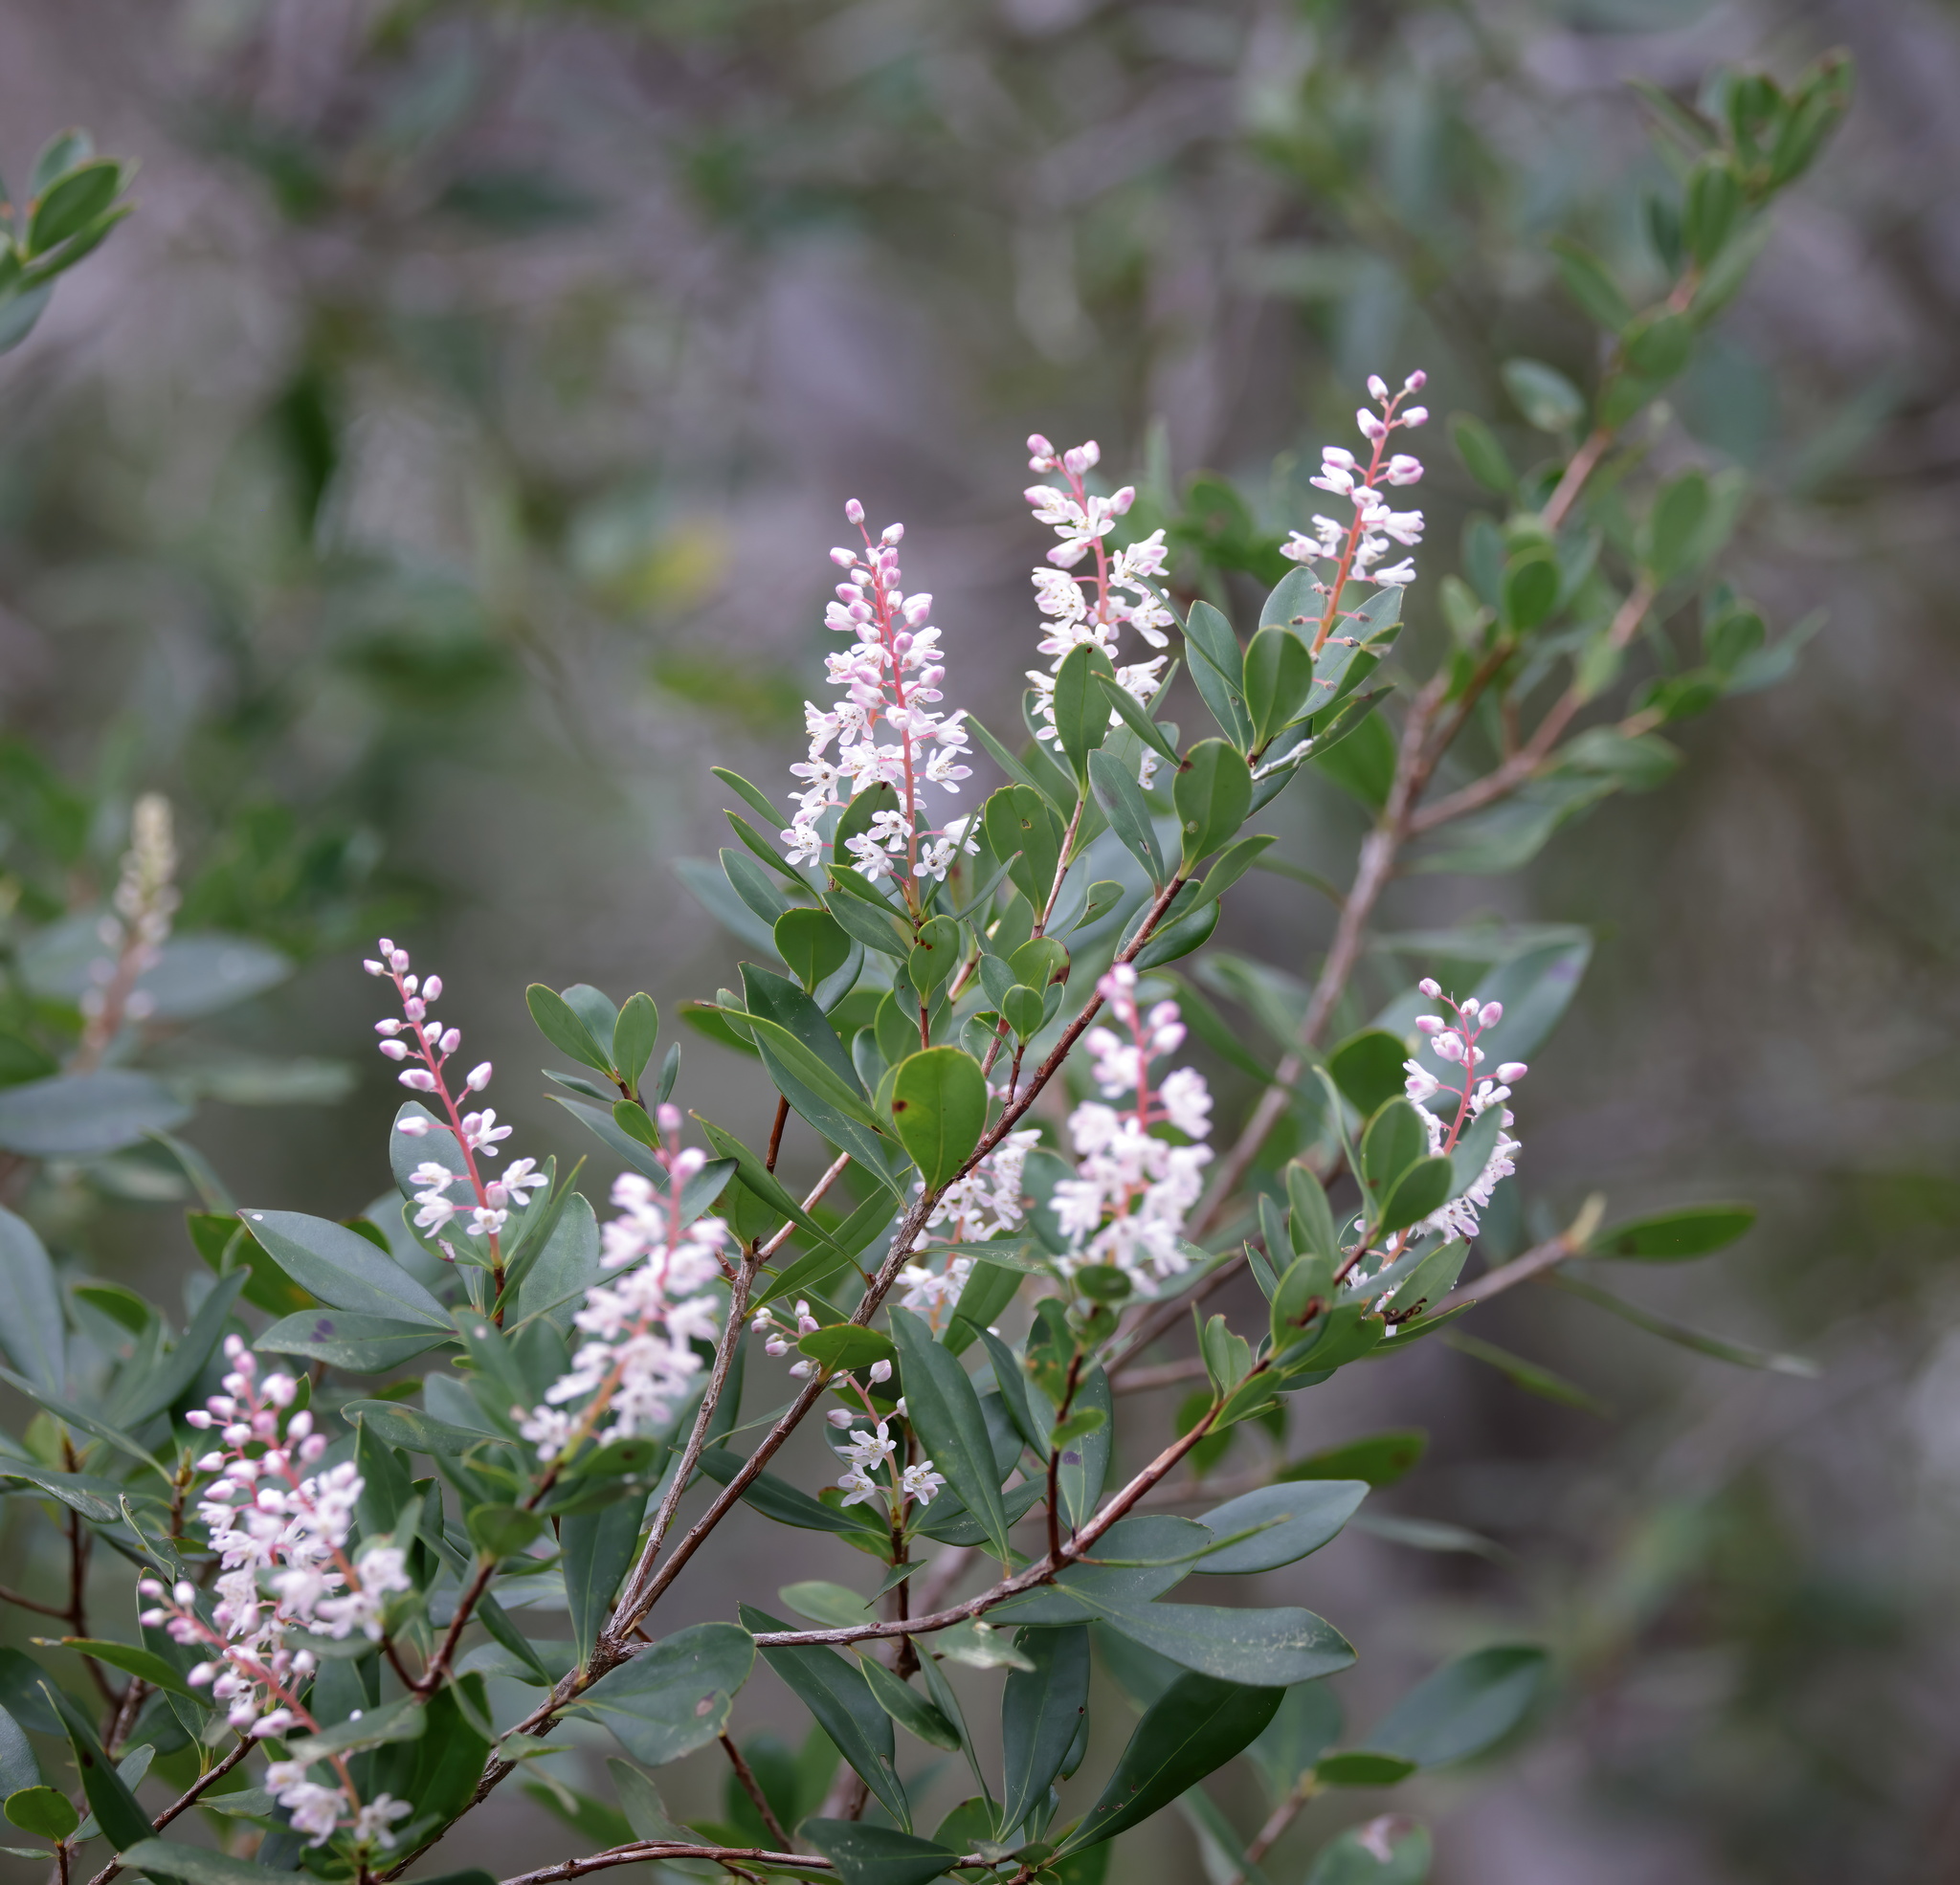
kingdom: Plantae
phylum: Tracheophyta
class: Magnoliopsida
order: Ericales
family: Cyrillaceae
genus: Cliftonia
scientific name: Cliftonia monophylla
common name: Titi
